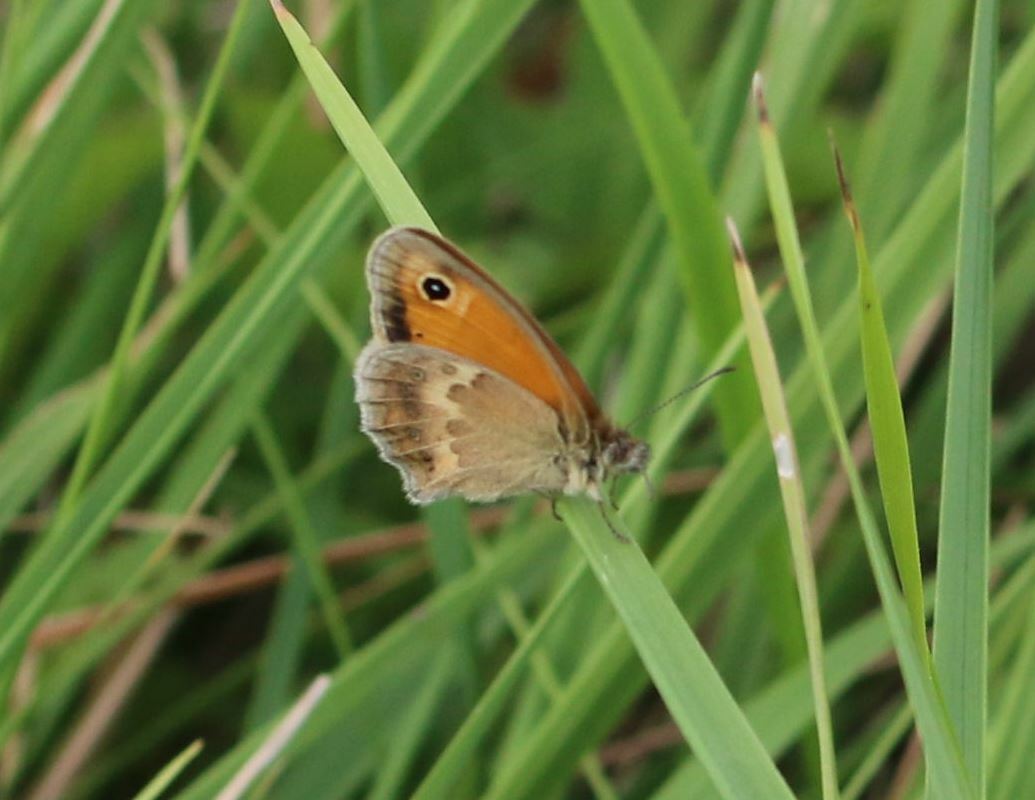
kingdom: Animalia
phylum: Arthropoda
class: Insecta
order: Lepidoptera
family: Nymphalidae
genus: Coenonympha
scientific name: Coenonympha pamphilus
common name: Small heath
